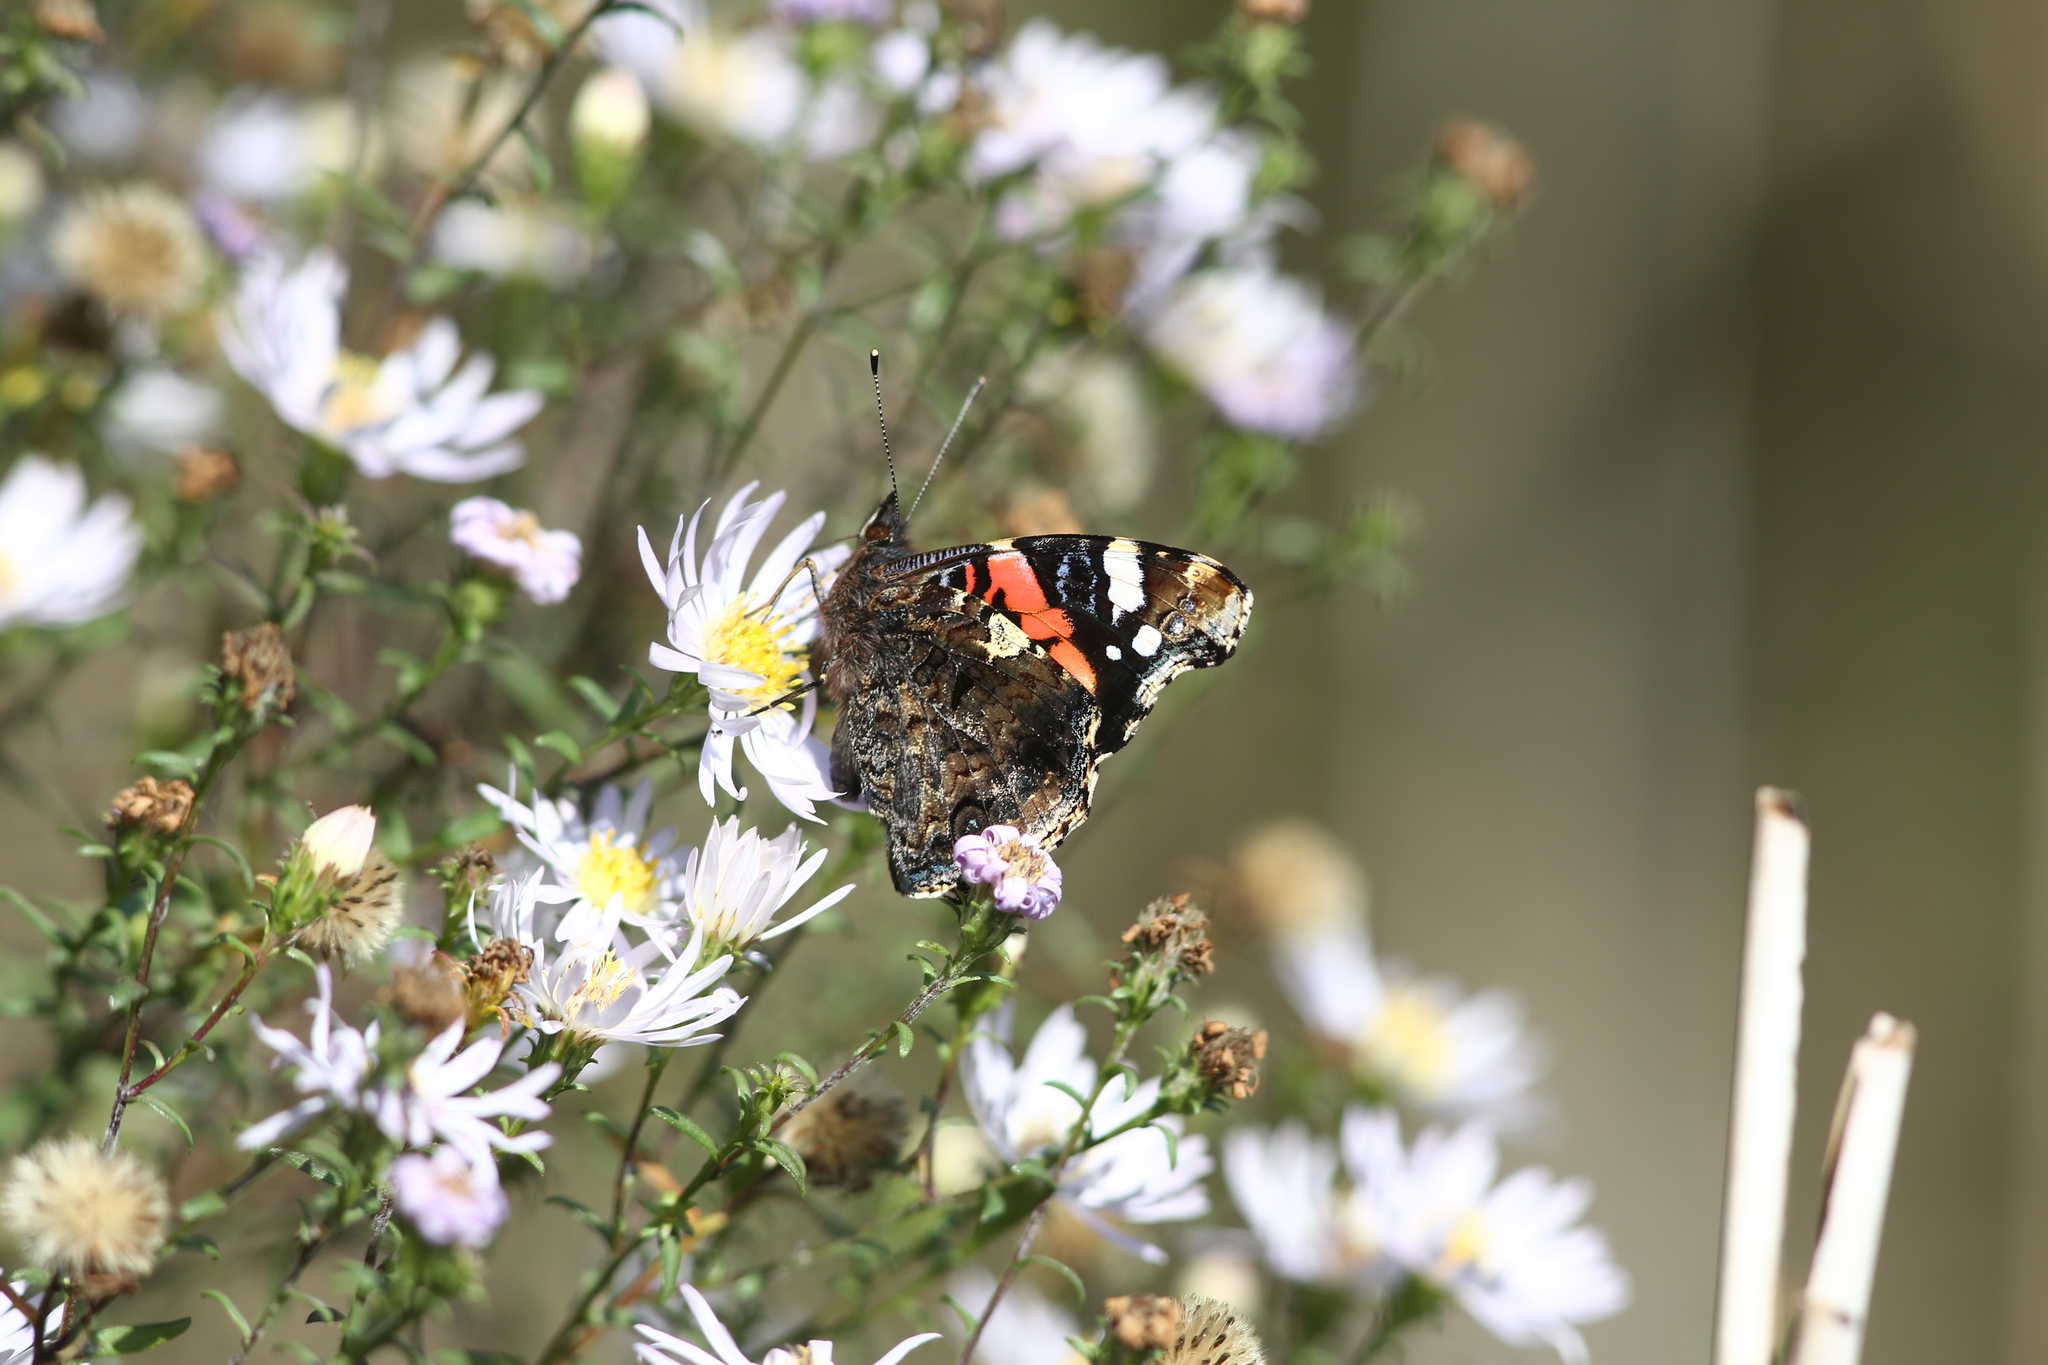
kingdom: Animalia
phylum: Arthropoda
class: Insecta
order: Lepidoptera
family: Nymphalidae
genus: Vanessa
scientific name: Vanessa atalanta
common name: Red admiral
